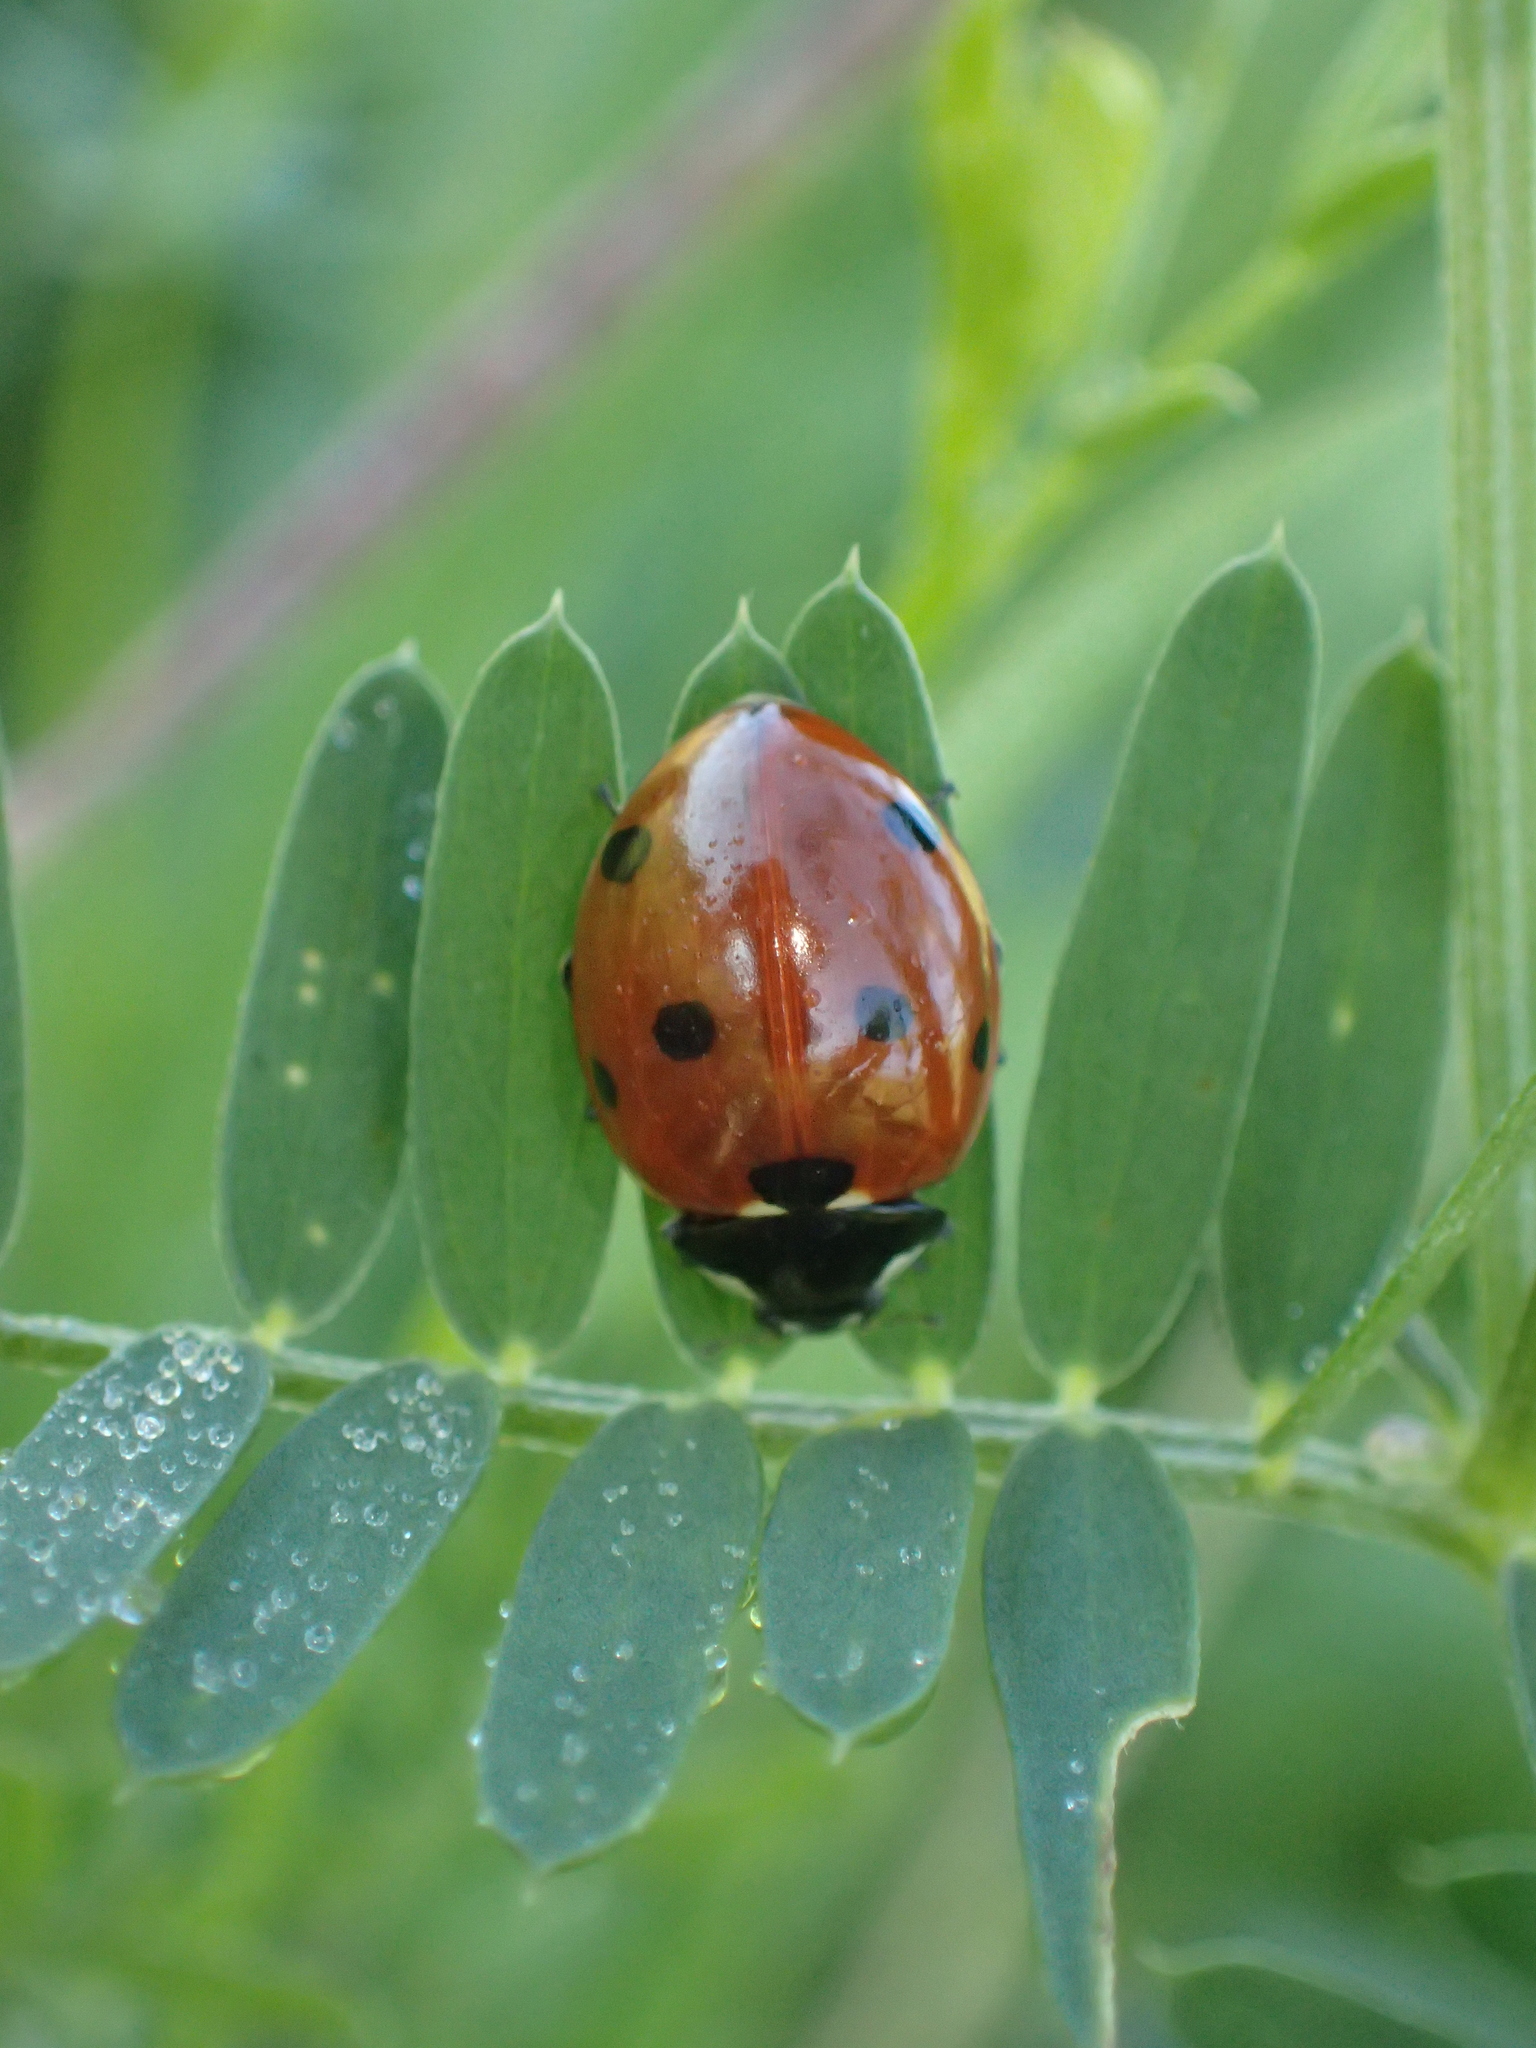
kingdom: Animalia
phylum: Arthropoda
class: Insecta
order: Coleoptera
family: Coccinellidae
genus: Coccinella
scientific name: Coccinella septempunctata
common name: Sevenspotted lady beetle
